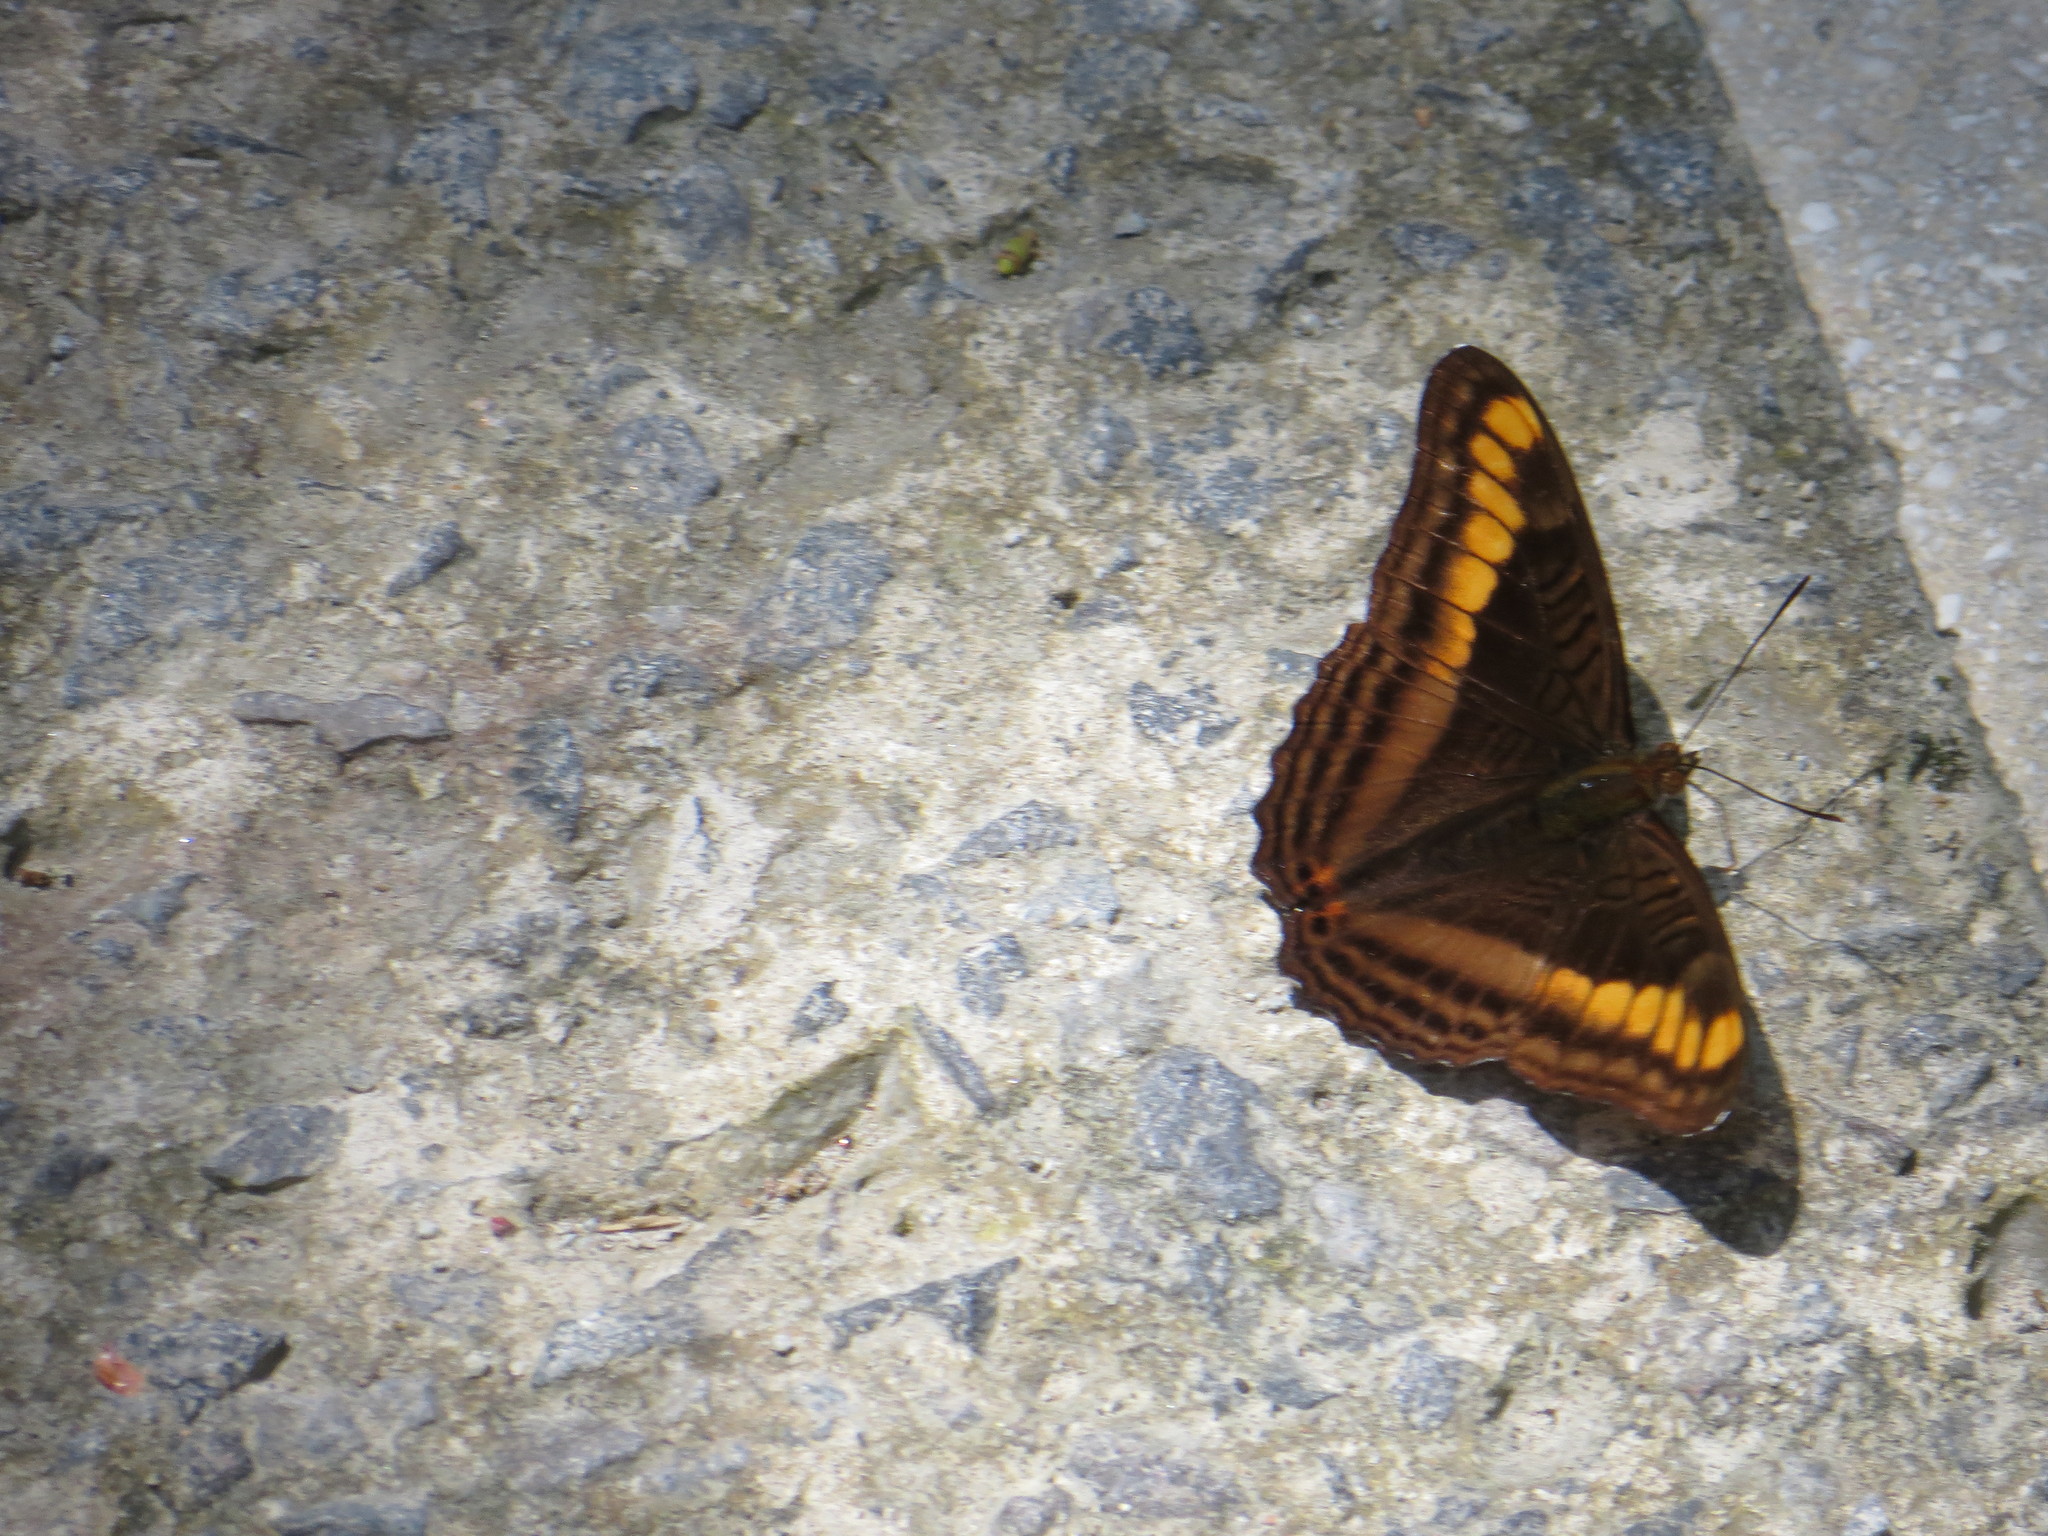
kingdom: Animalia
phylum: Arthropoda
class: Insecta
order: Lepidoptera
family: Nymphalidae
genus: Limenitis
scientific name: Limenitis Adelpha tracta
